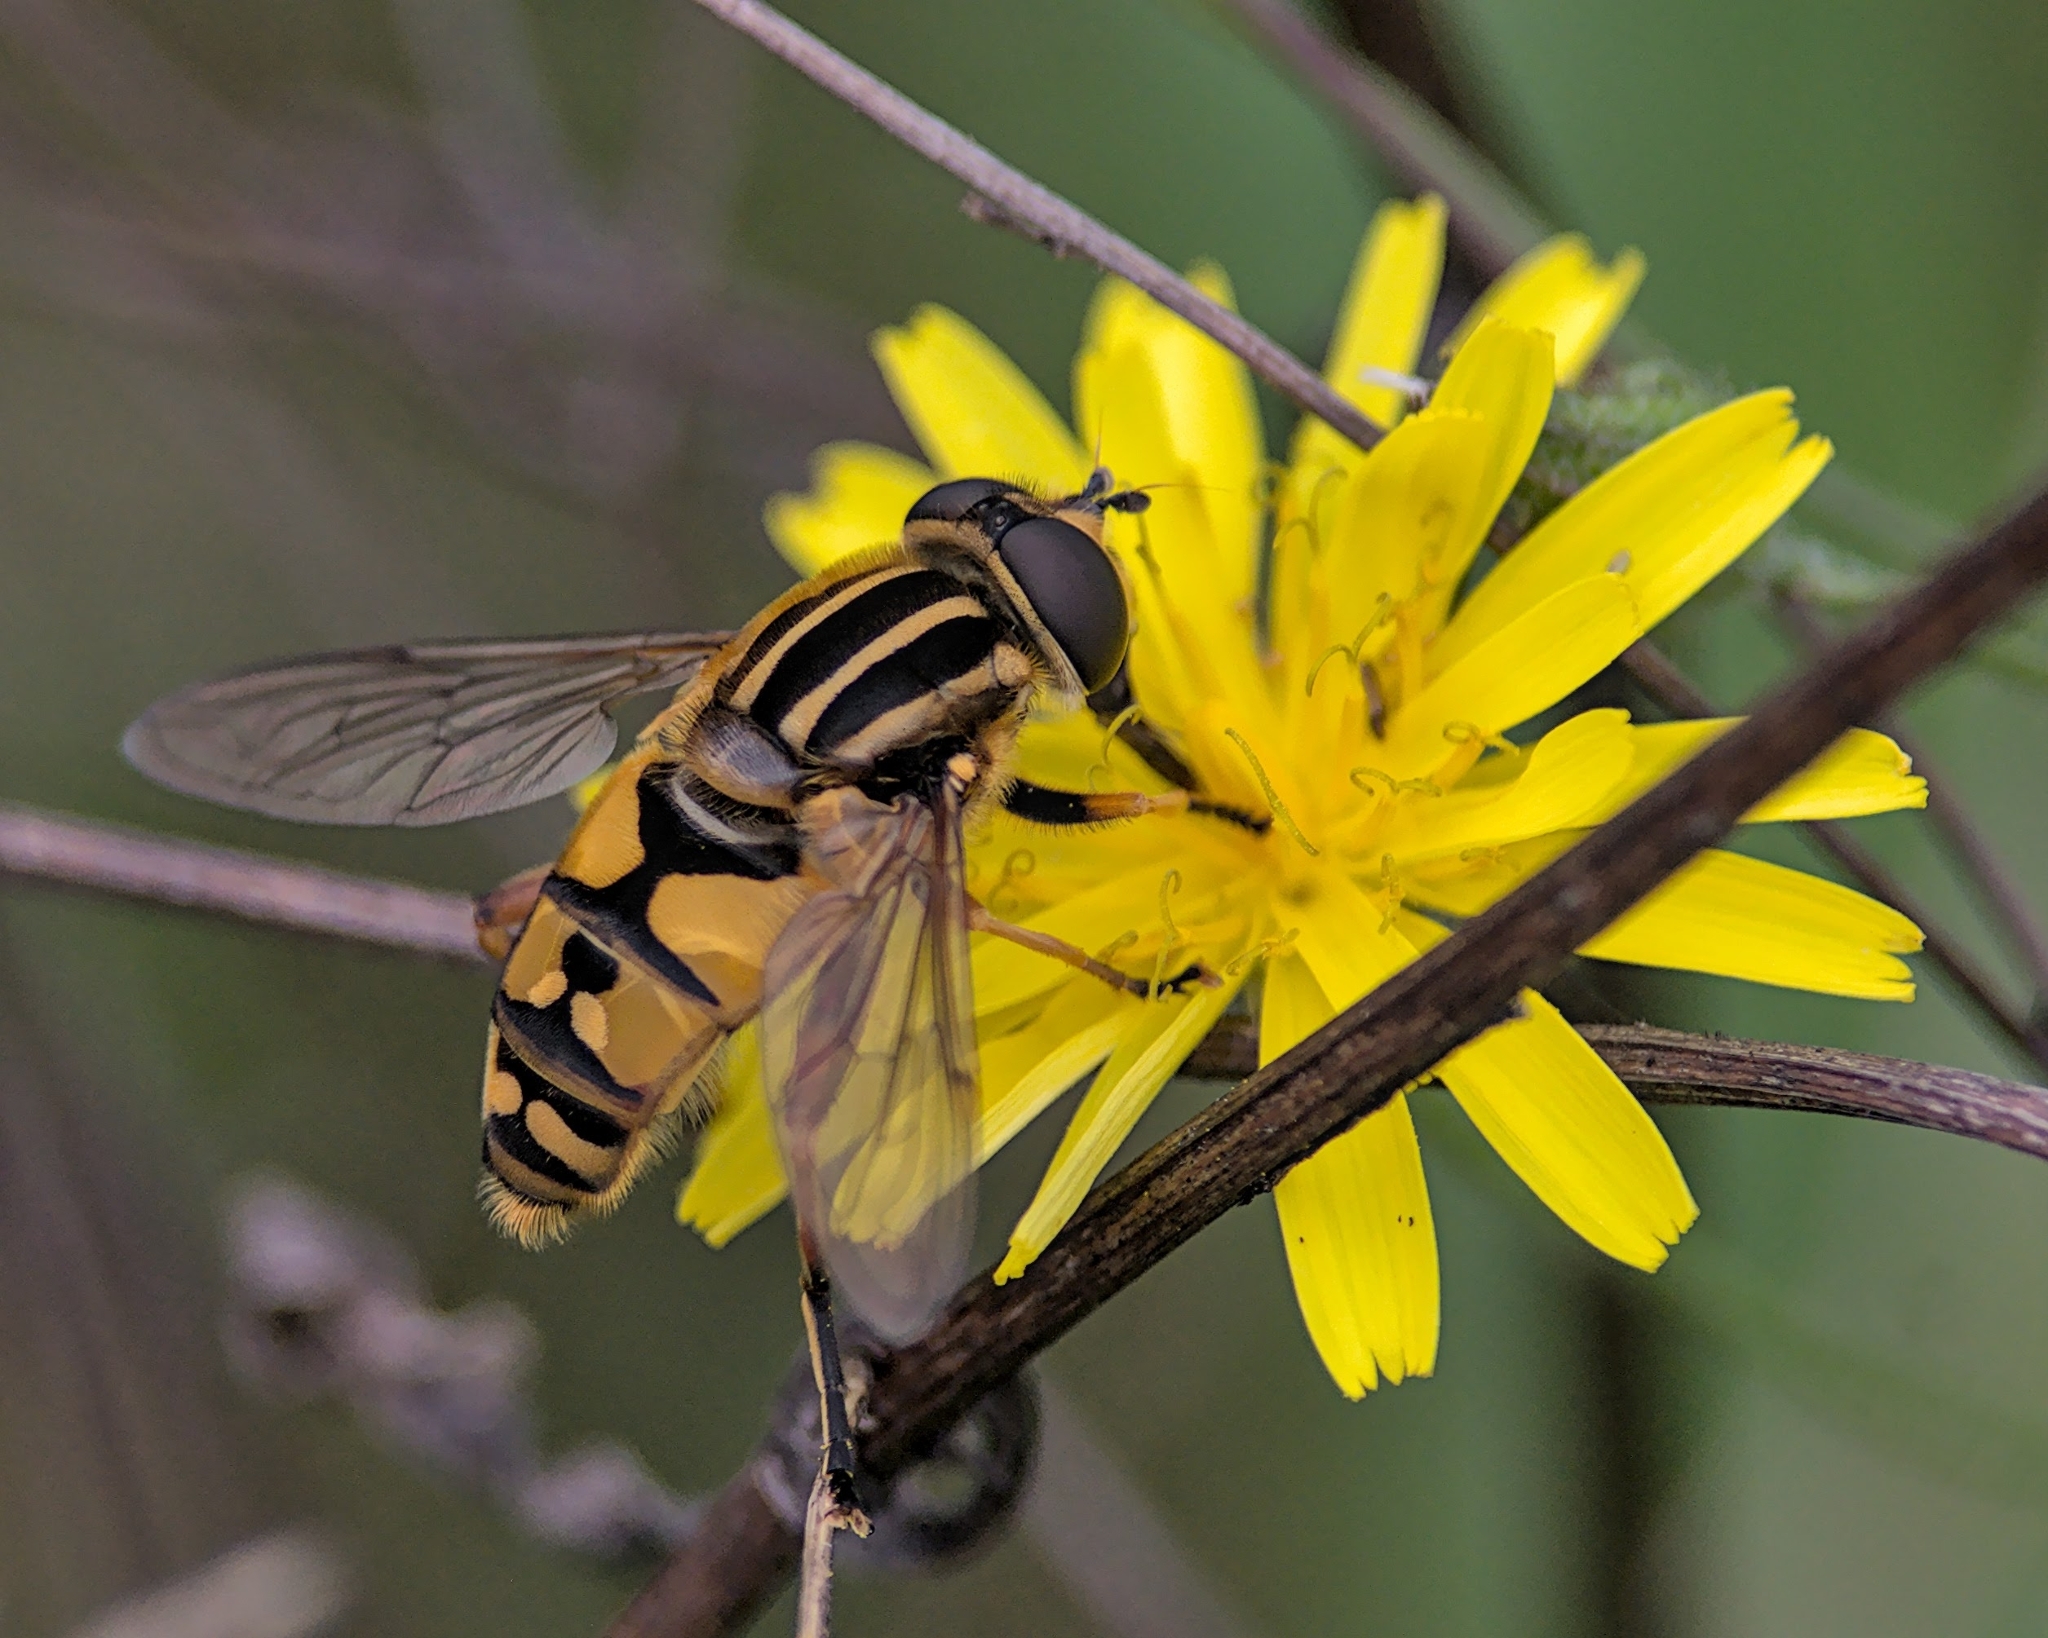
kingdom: Animalia
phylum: Arthropoda
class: Insecta
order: Diptera
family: Syrphidae
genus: Helophilus
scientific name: Helophilus pendulus
